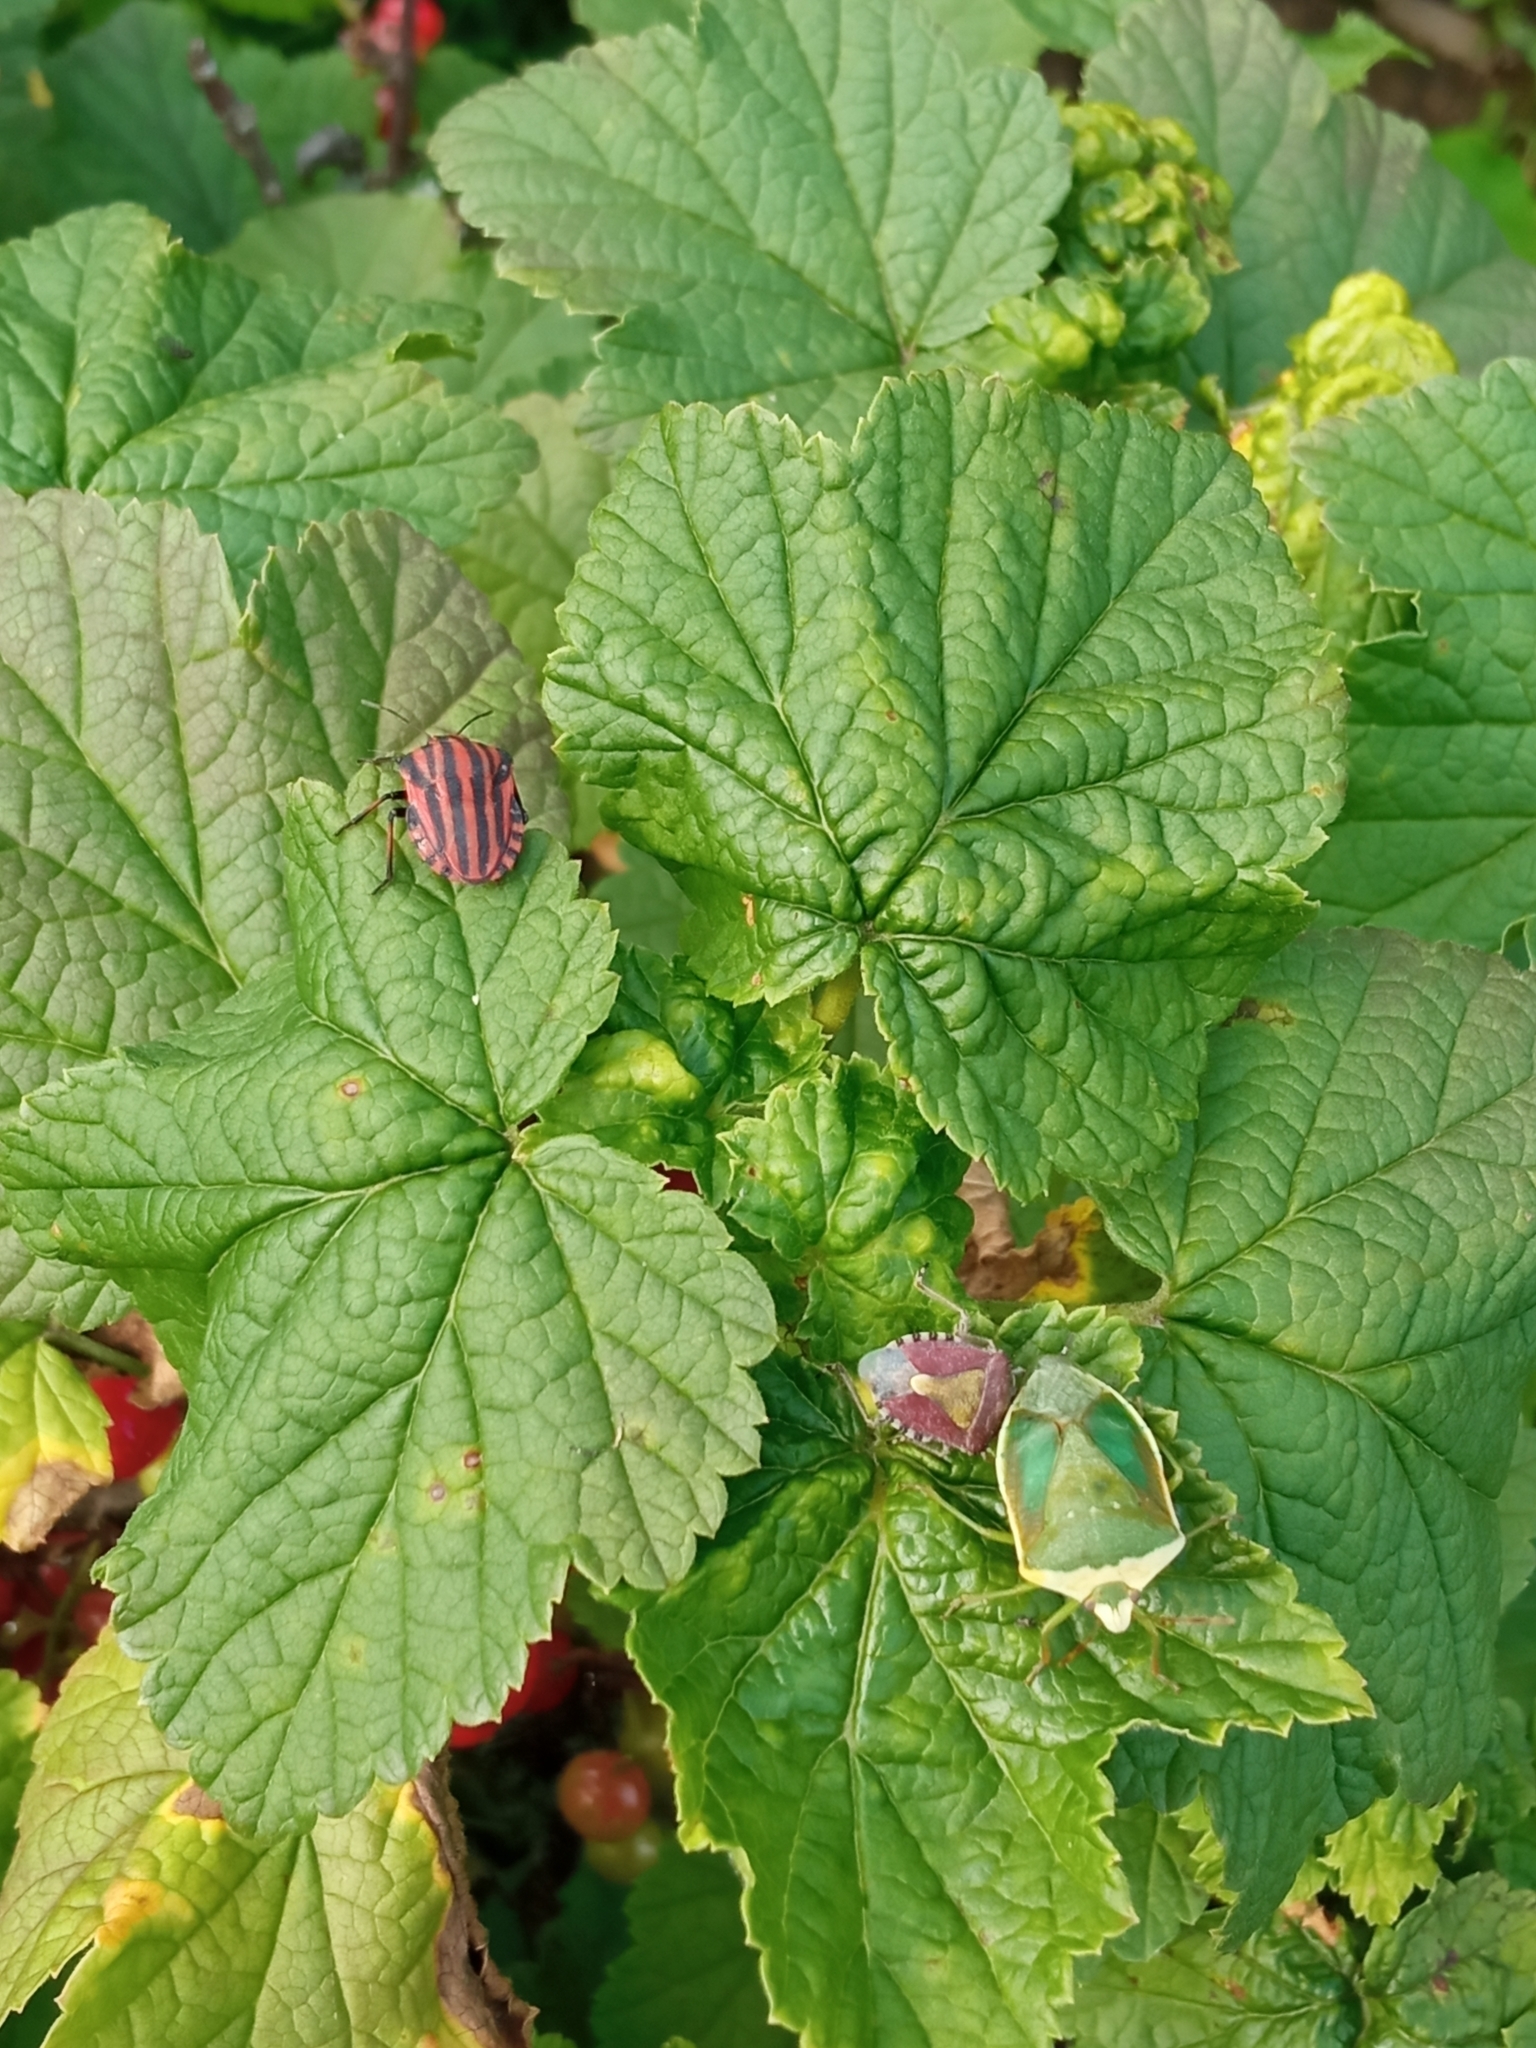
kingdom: Animalia
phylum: Arthropoda
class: Insecta
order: Hemiptera
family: Pentatomidae
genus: Graphosoma
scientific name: Graphosoma italicum
